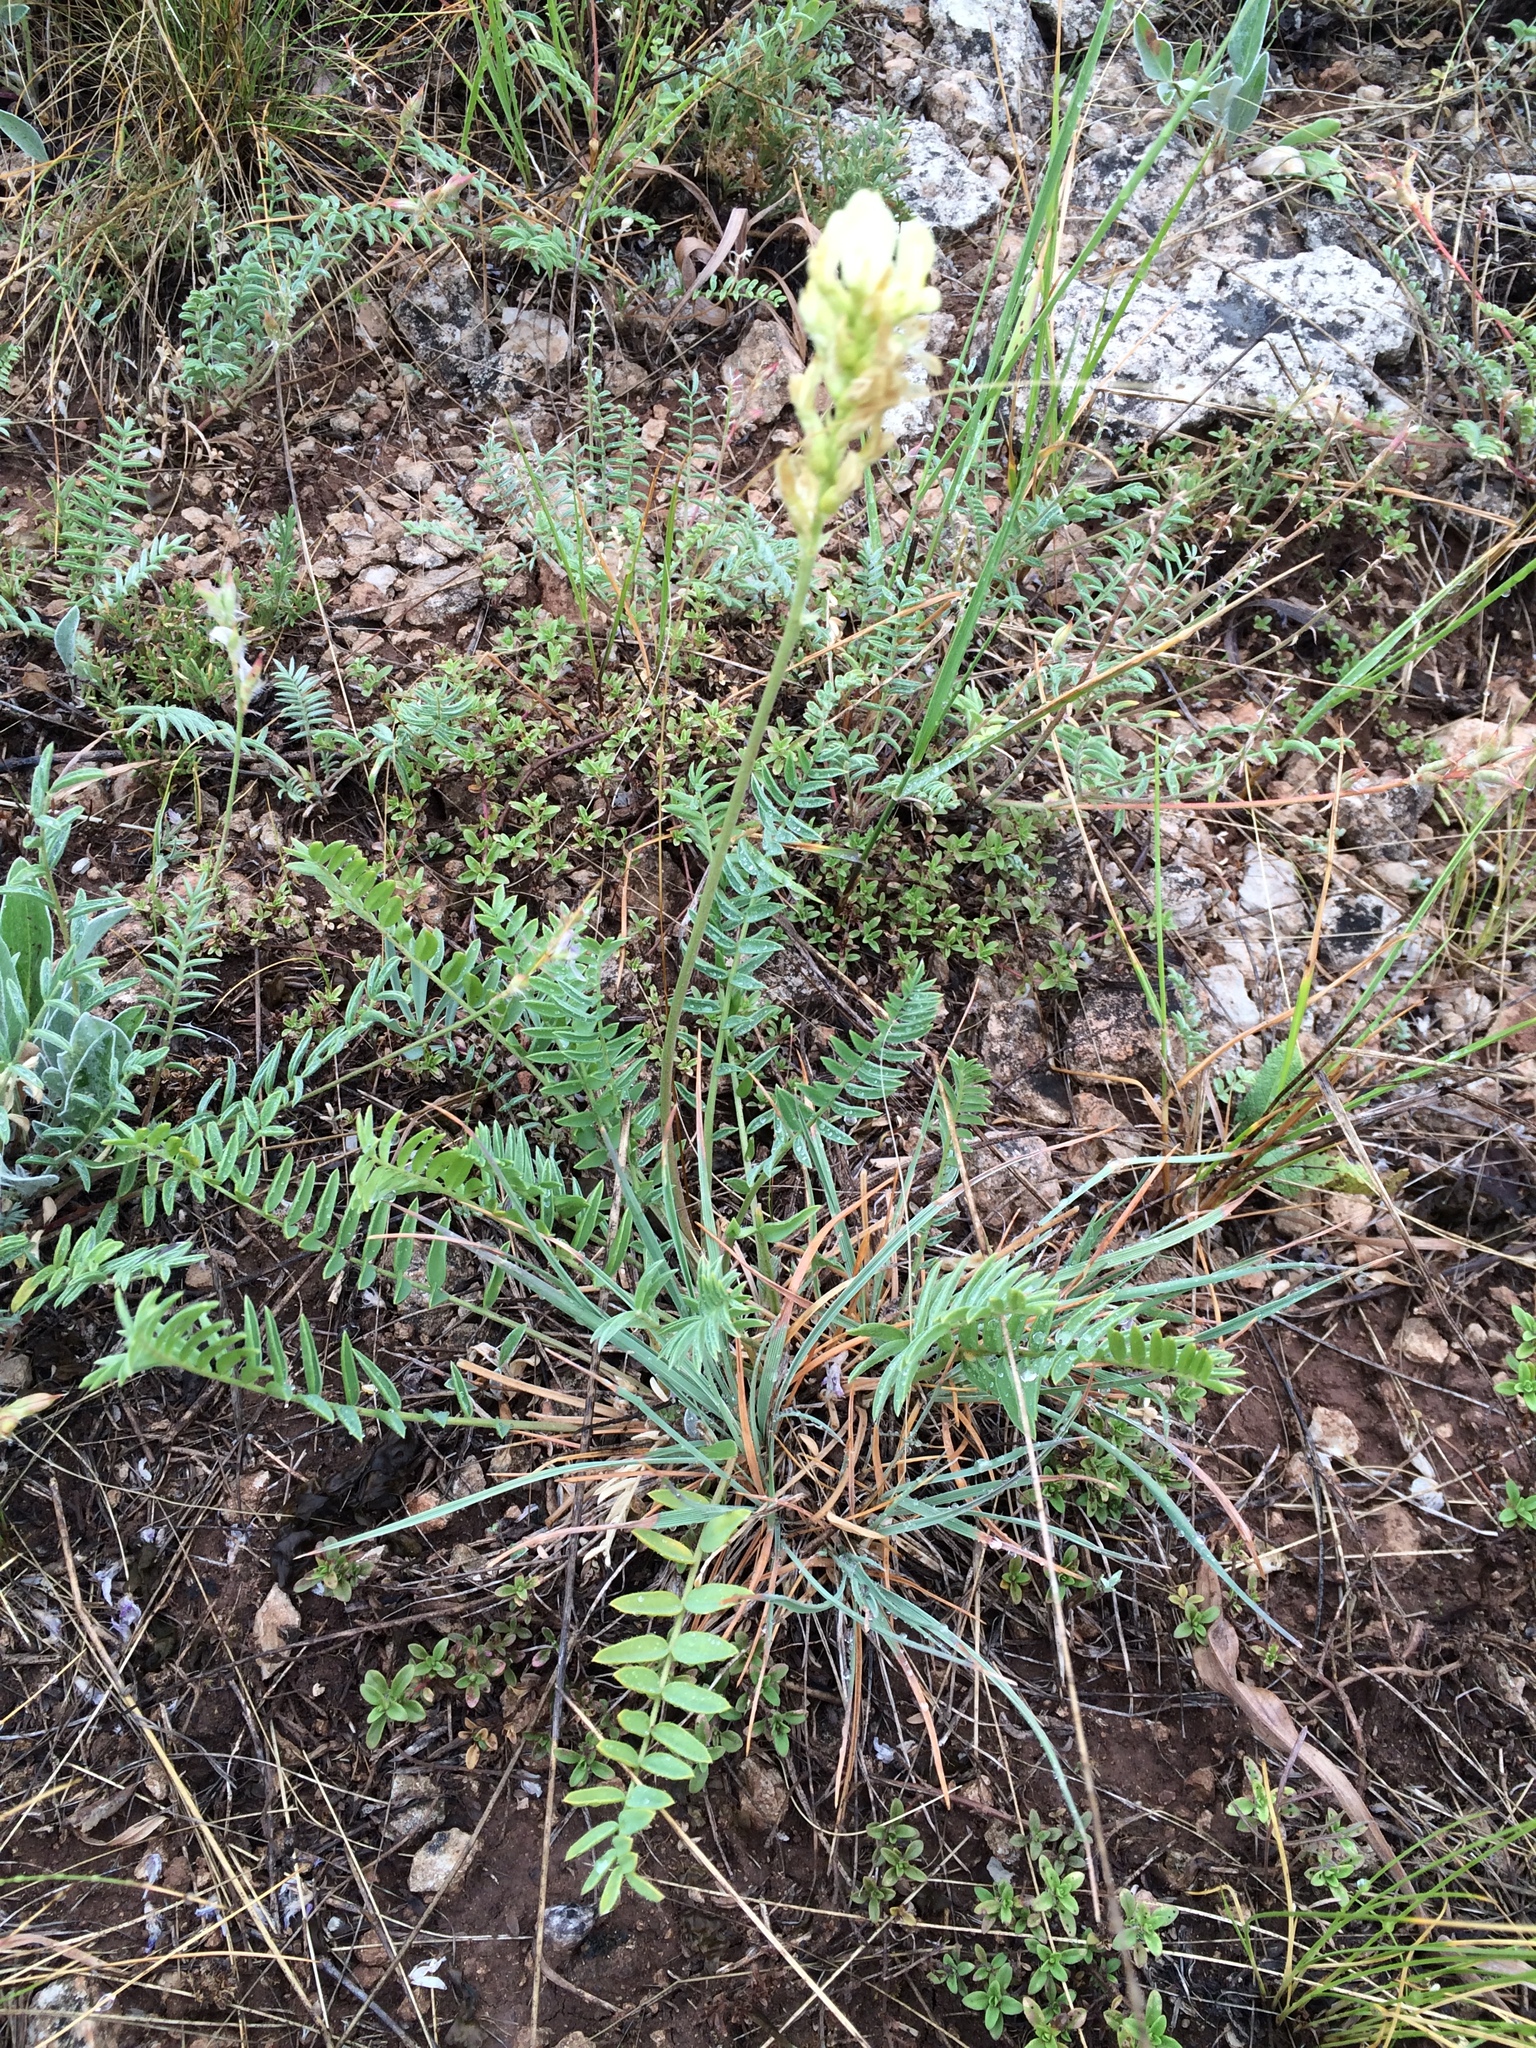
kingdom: Plantae
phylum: Tracheophyta
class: Magnoliopsida
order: Fabales
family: Fabaceae
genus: Oxytropis
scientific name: Oxytropis hippolyti
